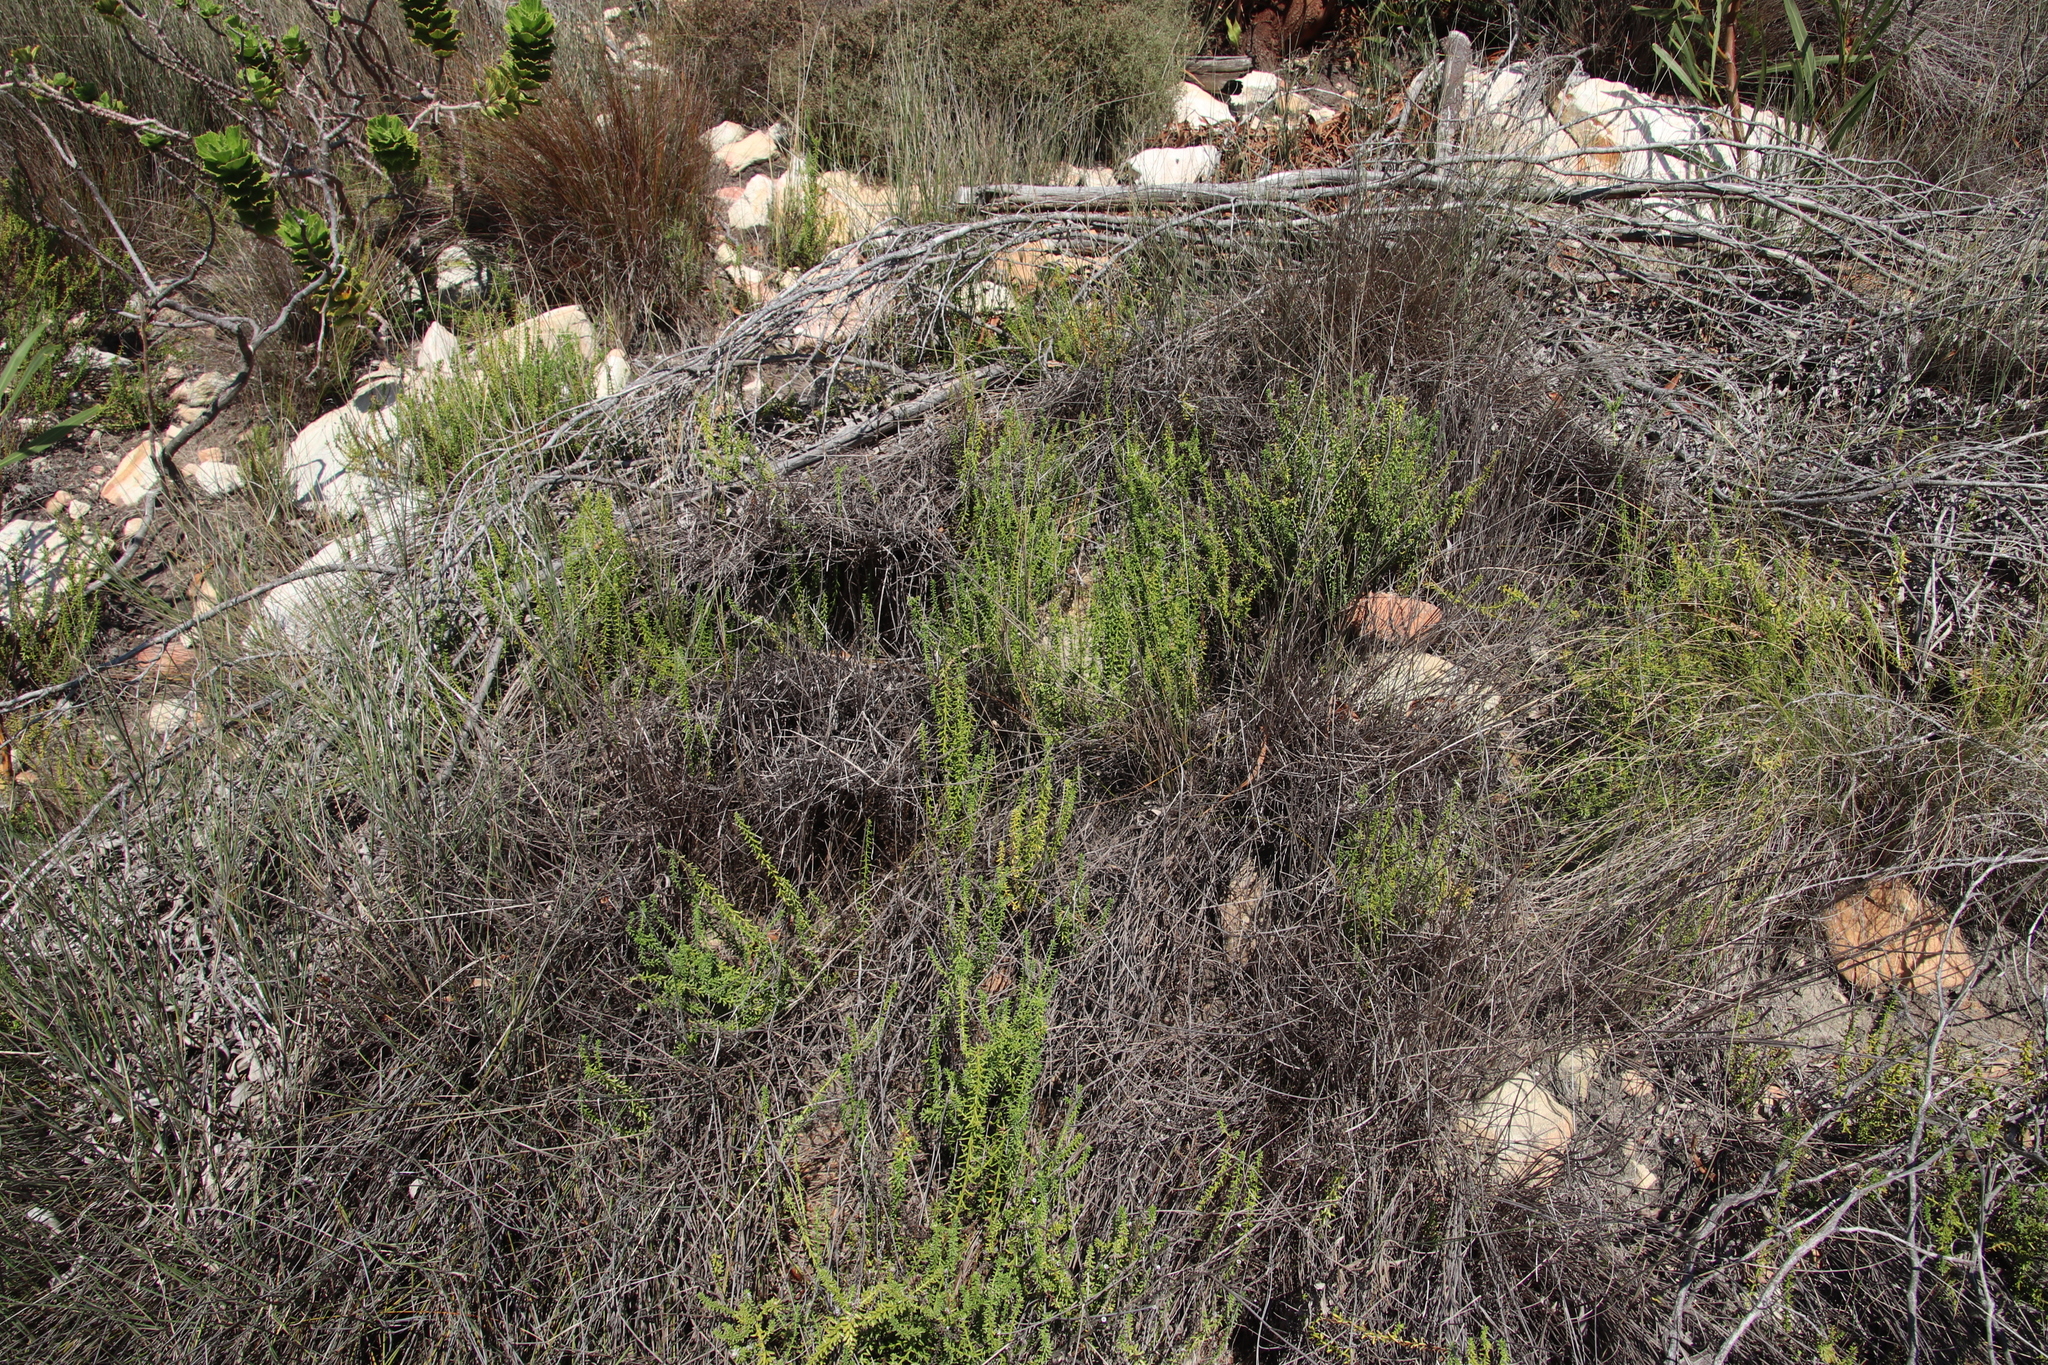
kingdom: Plantae
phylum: Tracheophyta
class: Magnoliopsida
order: Asterales
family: Asteraceae
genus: Chrysocoma
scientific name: Chrysocoma cernua
